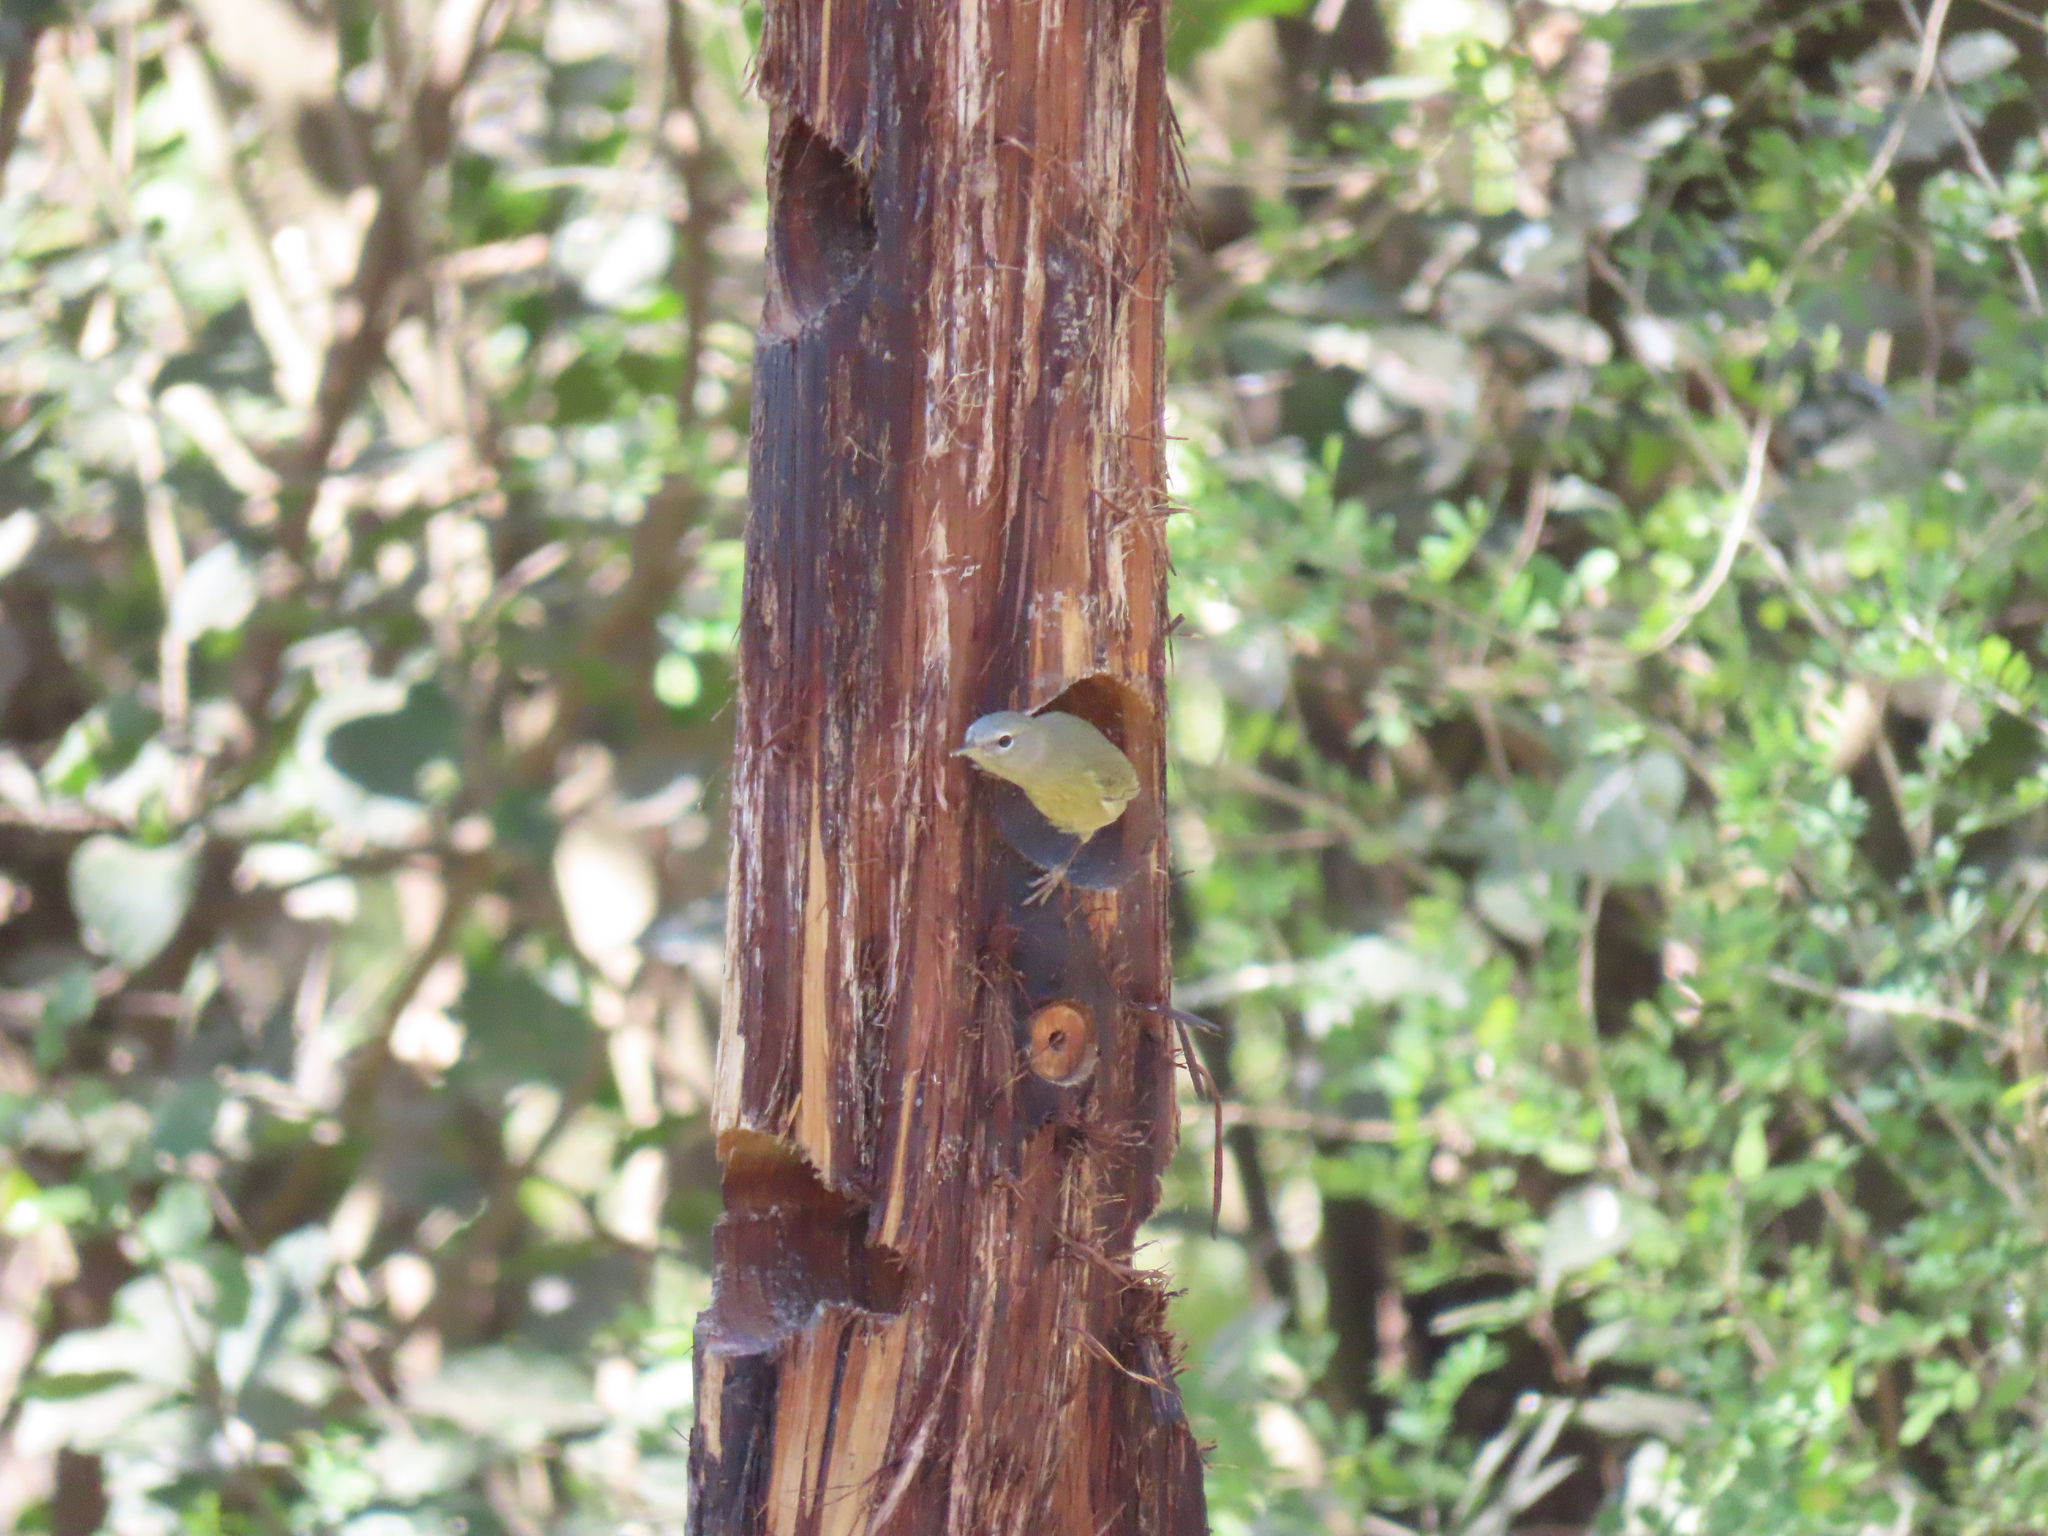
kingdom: Animalia
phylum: Chordata
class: Aves
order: Passeriformes
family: Parulidae
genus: Leiothlypis
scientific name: Leiothlypis celata
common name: Orange-crowned warbler
